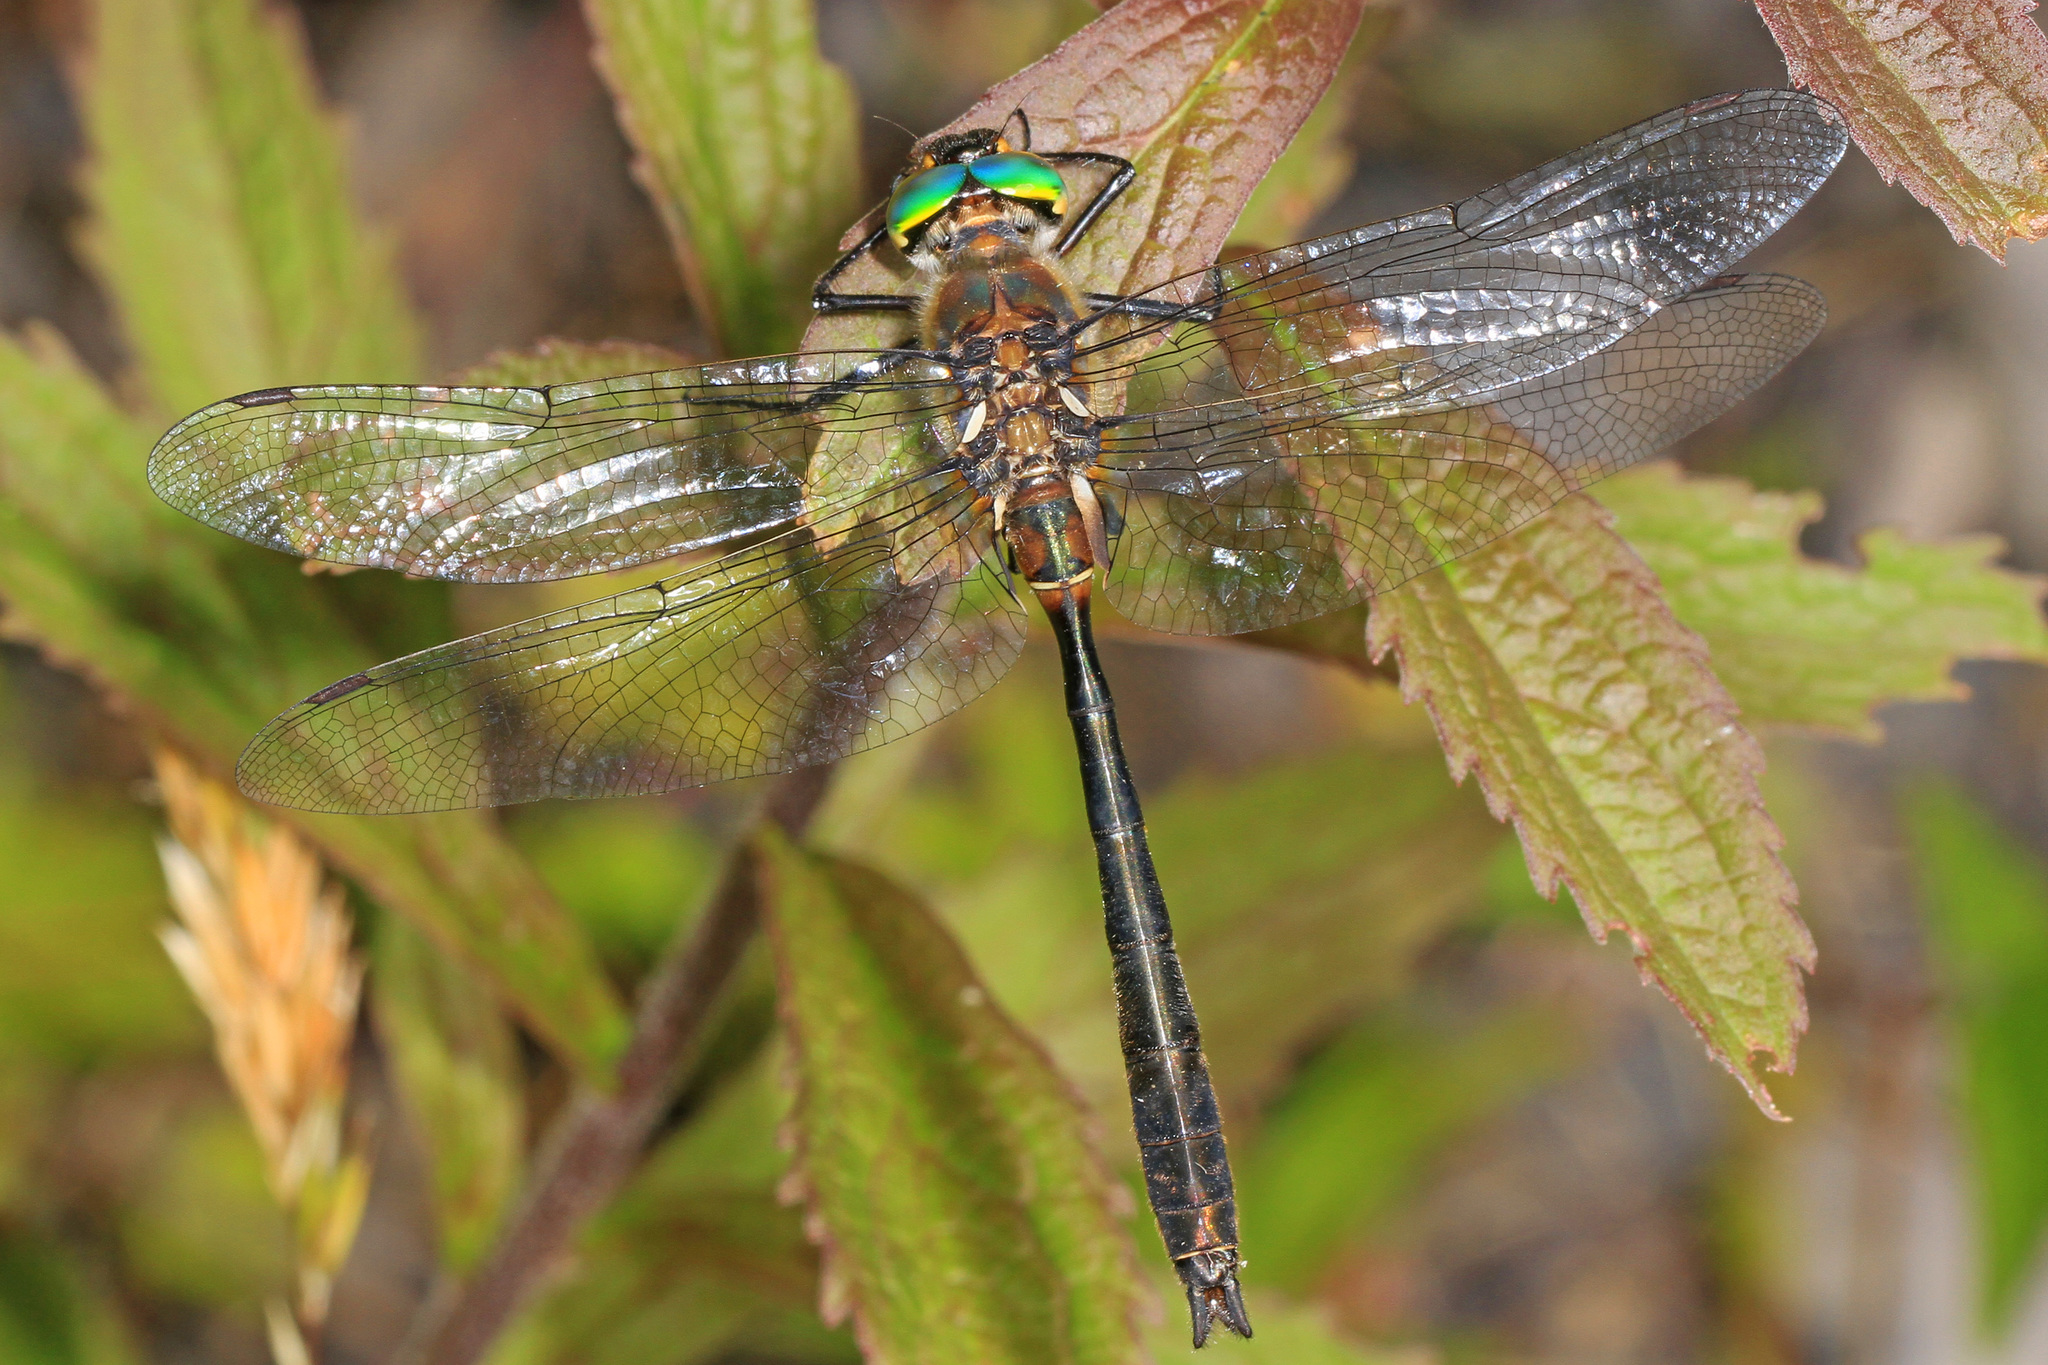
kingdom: Animalia
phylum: Arthropoda
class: Insecta
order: Odonata
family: Corduliidae
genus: Cordulia
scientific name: Cordulia shurtleffii
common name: American emerald
